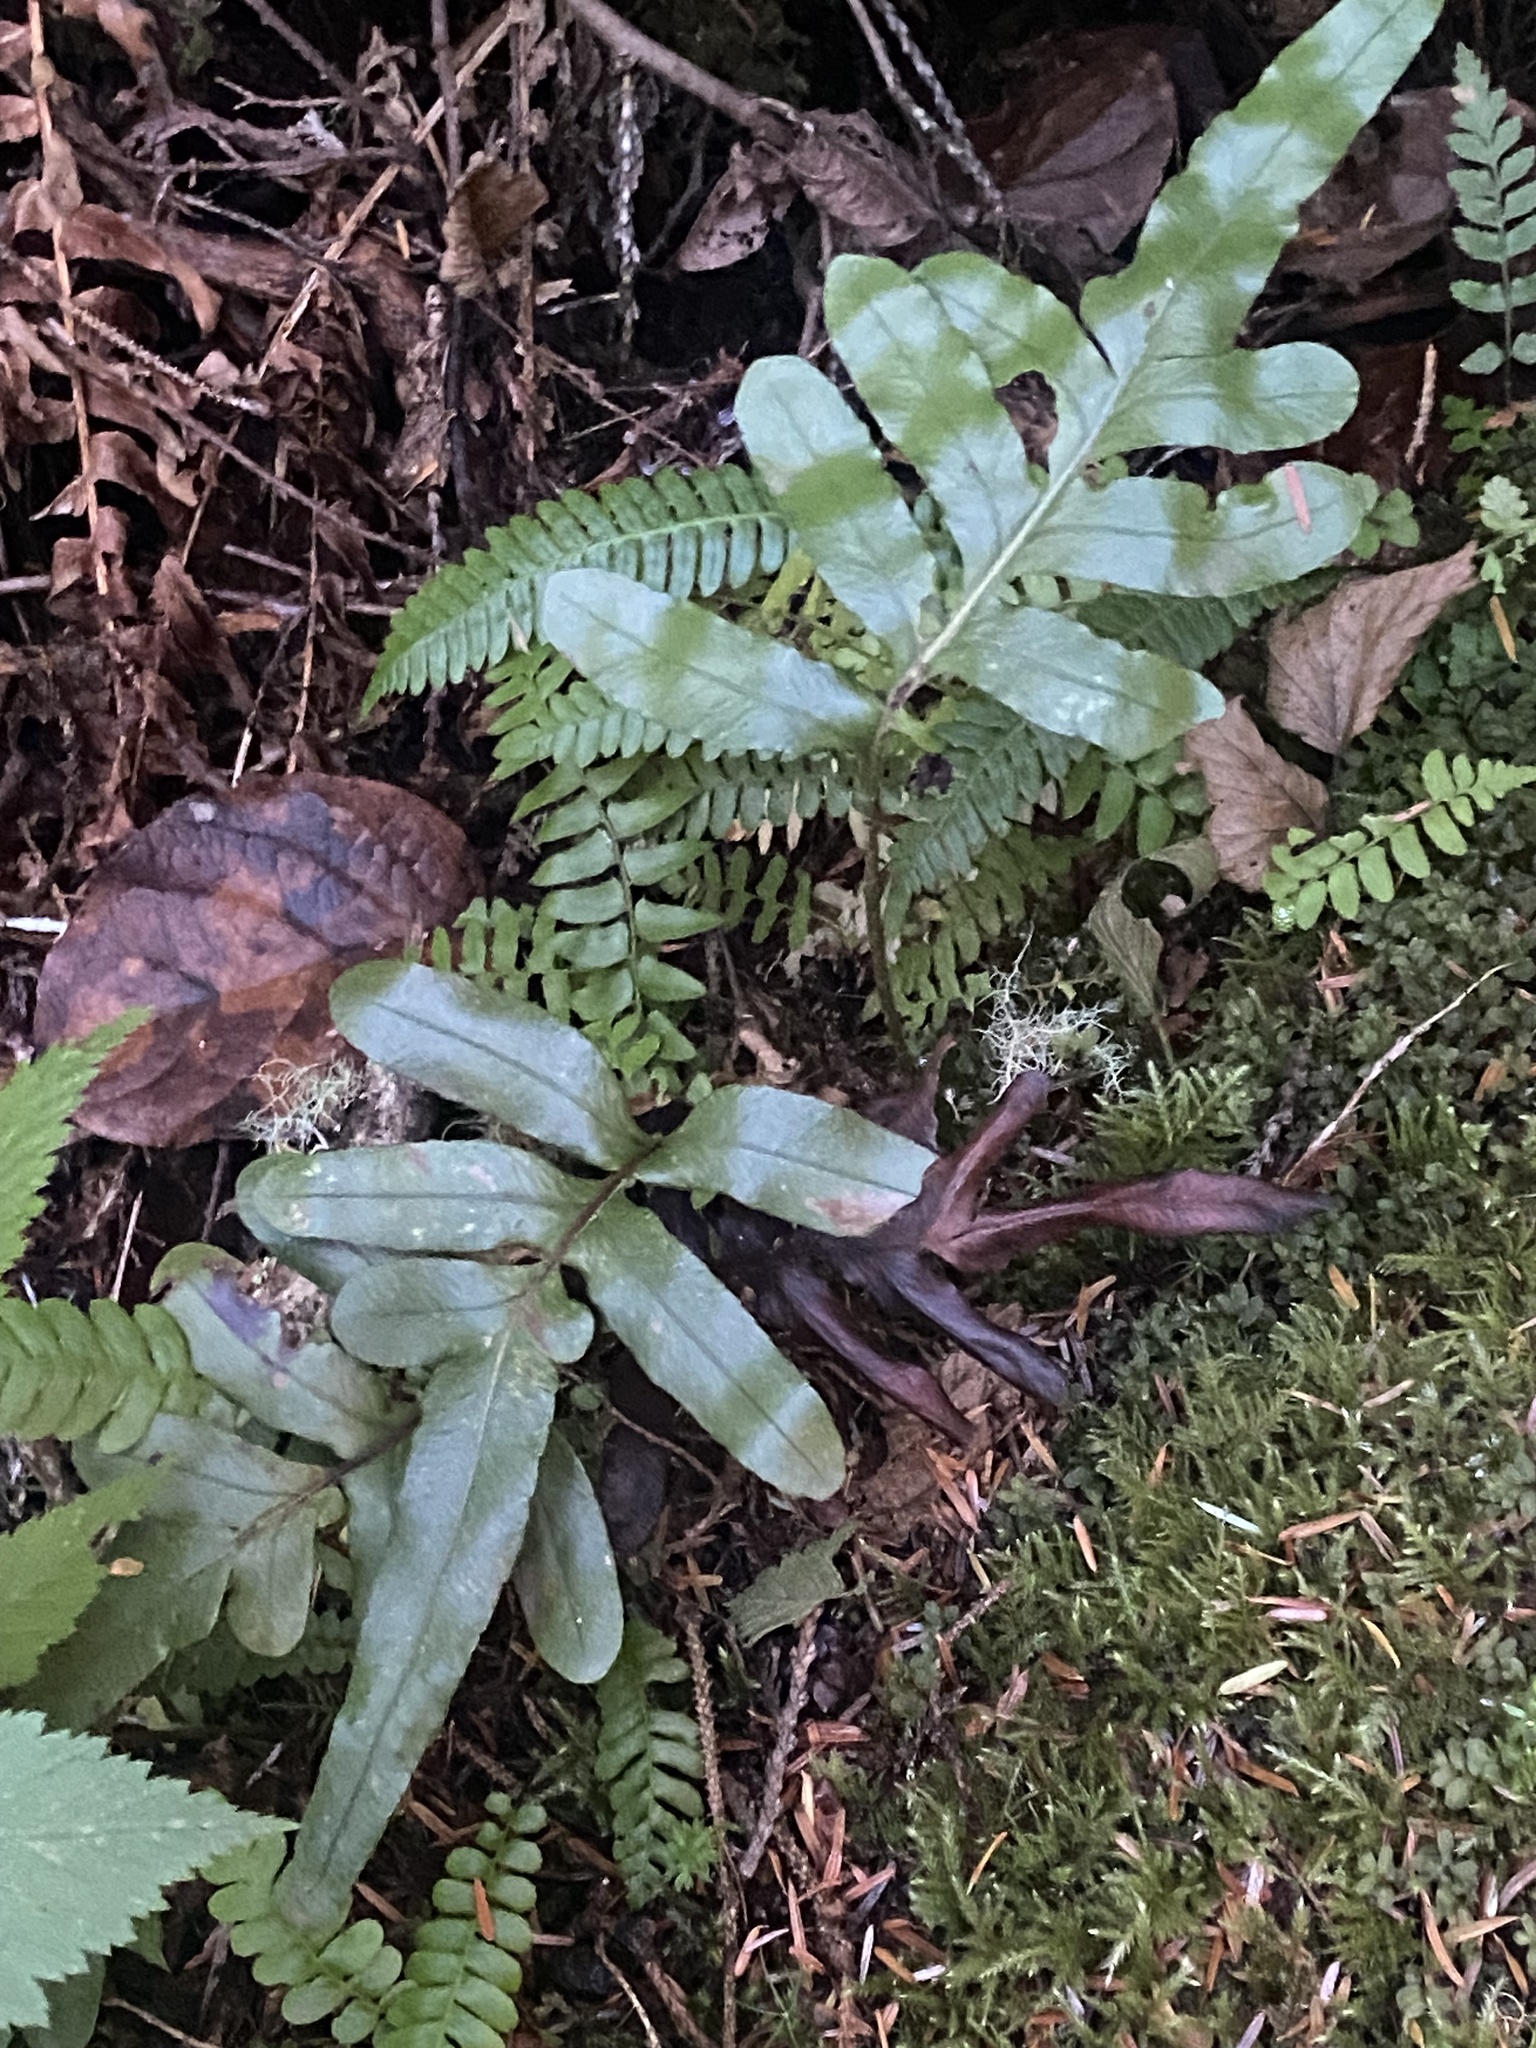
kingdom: Plantae
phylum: Tracheophyta
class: Polypodiopsida
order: Polypodiales
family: Polypodiaceae
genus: Polypodium
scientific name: Polypodium scouleri
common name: Scouler's polypody
